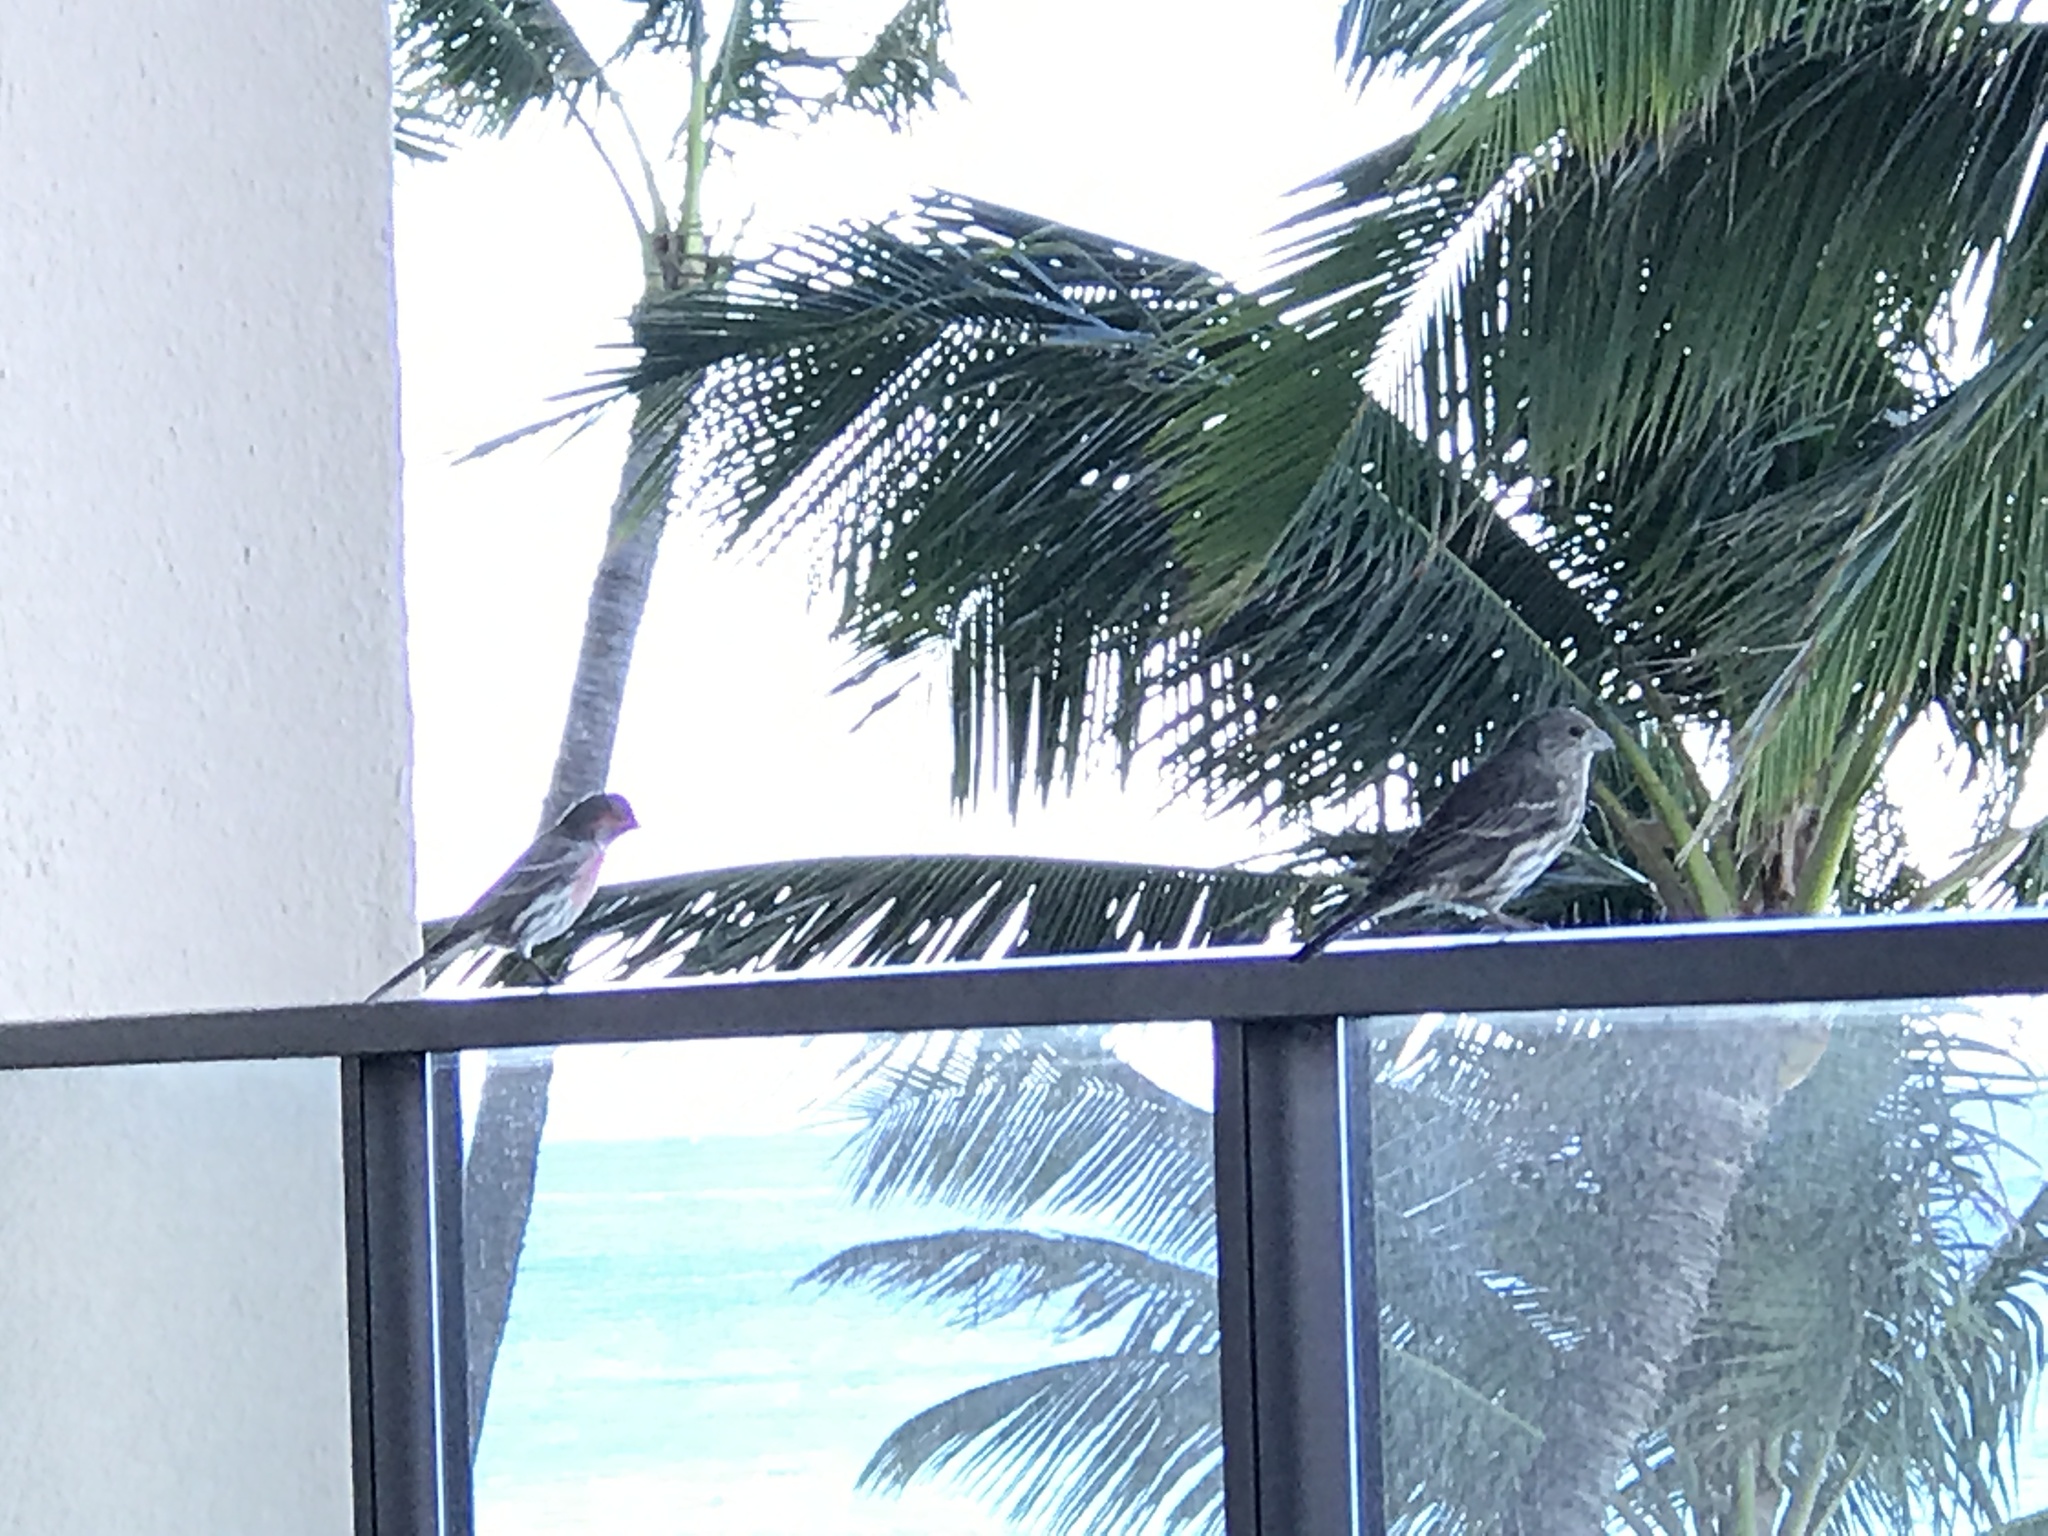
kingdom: Animalia
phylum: Chordata
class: Aves
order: Passeriformes
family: Fringillidae
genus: Haemorhous
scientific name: Haemorhous mexicanus
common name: House finch
